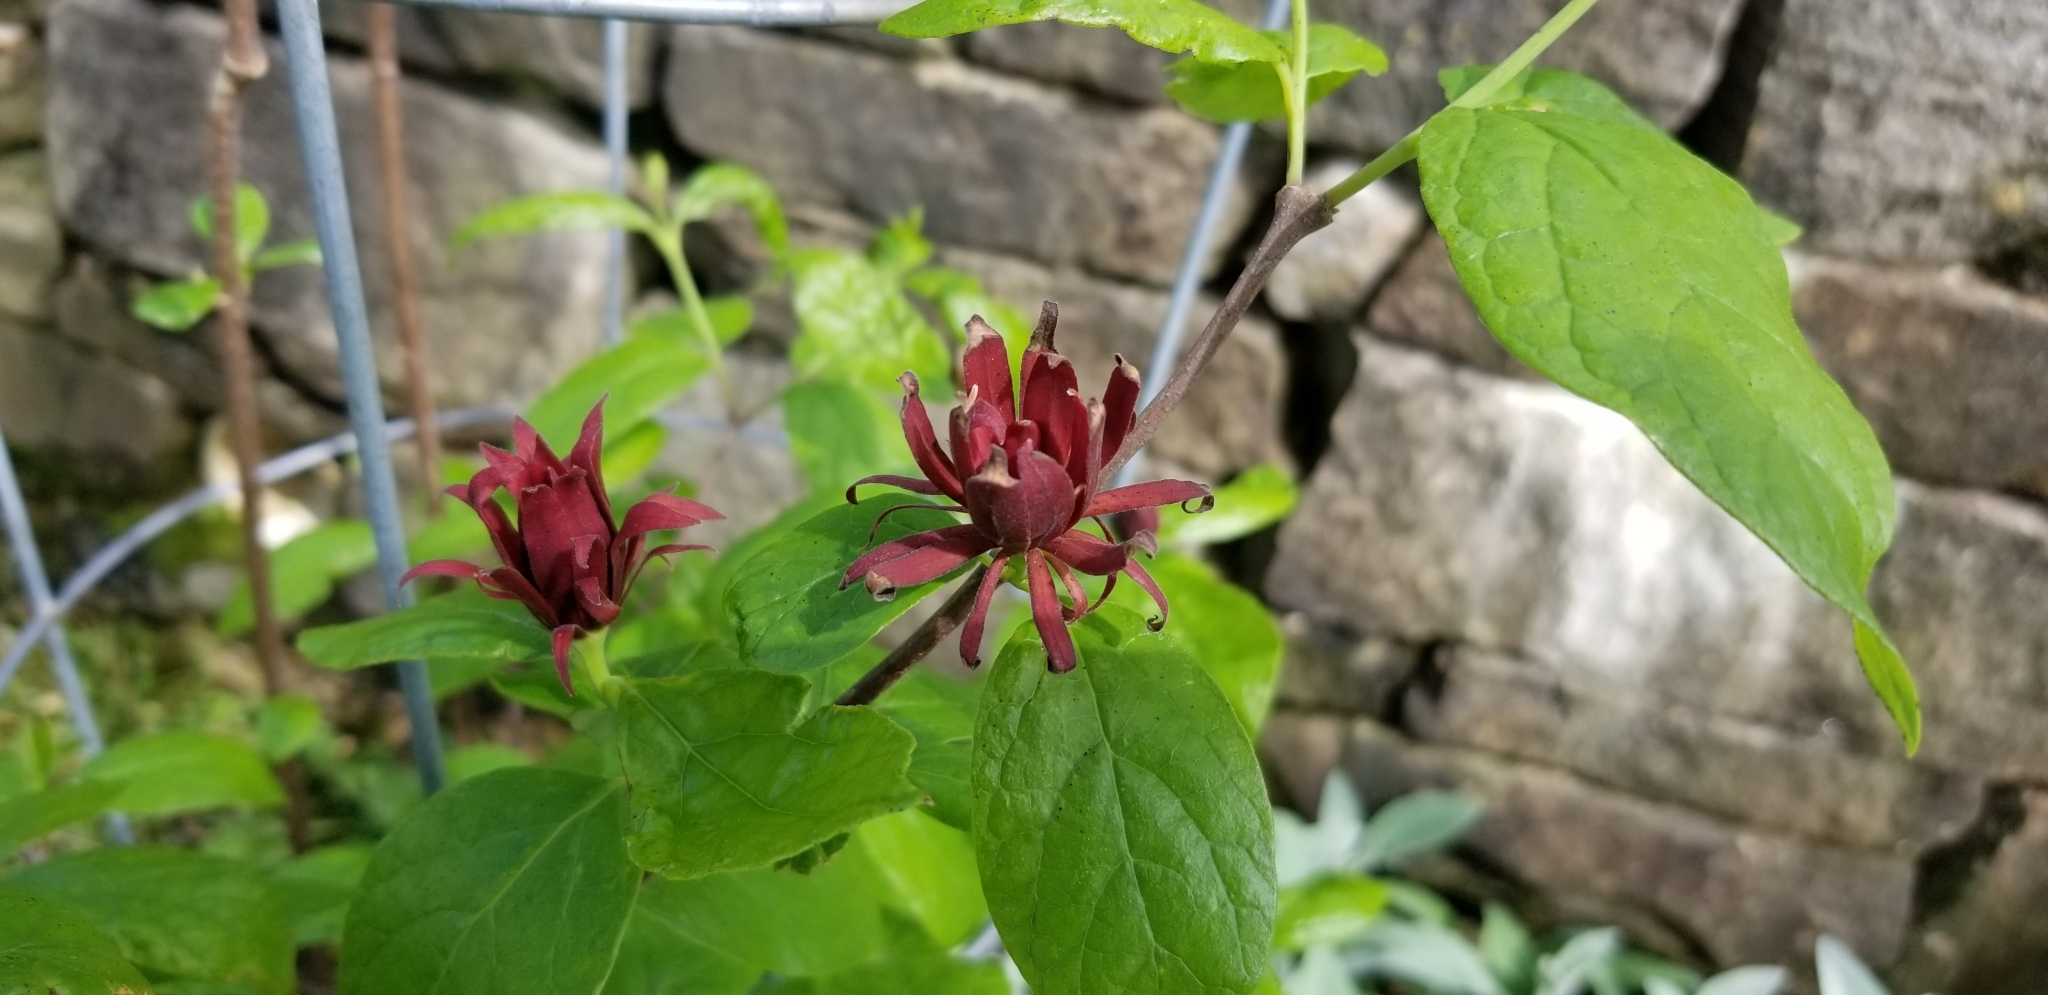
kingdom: Plantae
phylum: Tracheophyta
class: Magnoliopsida
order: Laurales
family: Calycanthaceae
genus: Calycanthus
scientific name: Calycanthus floridus
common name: Carolina-allspice
